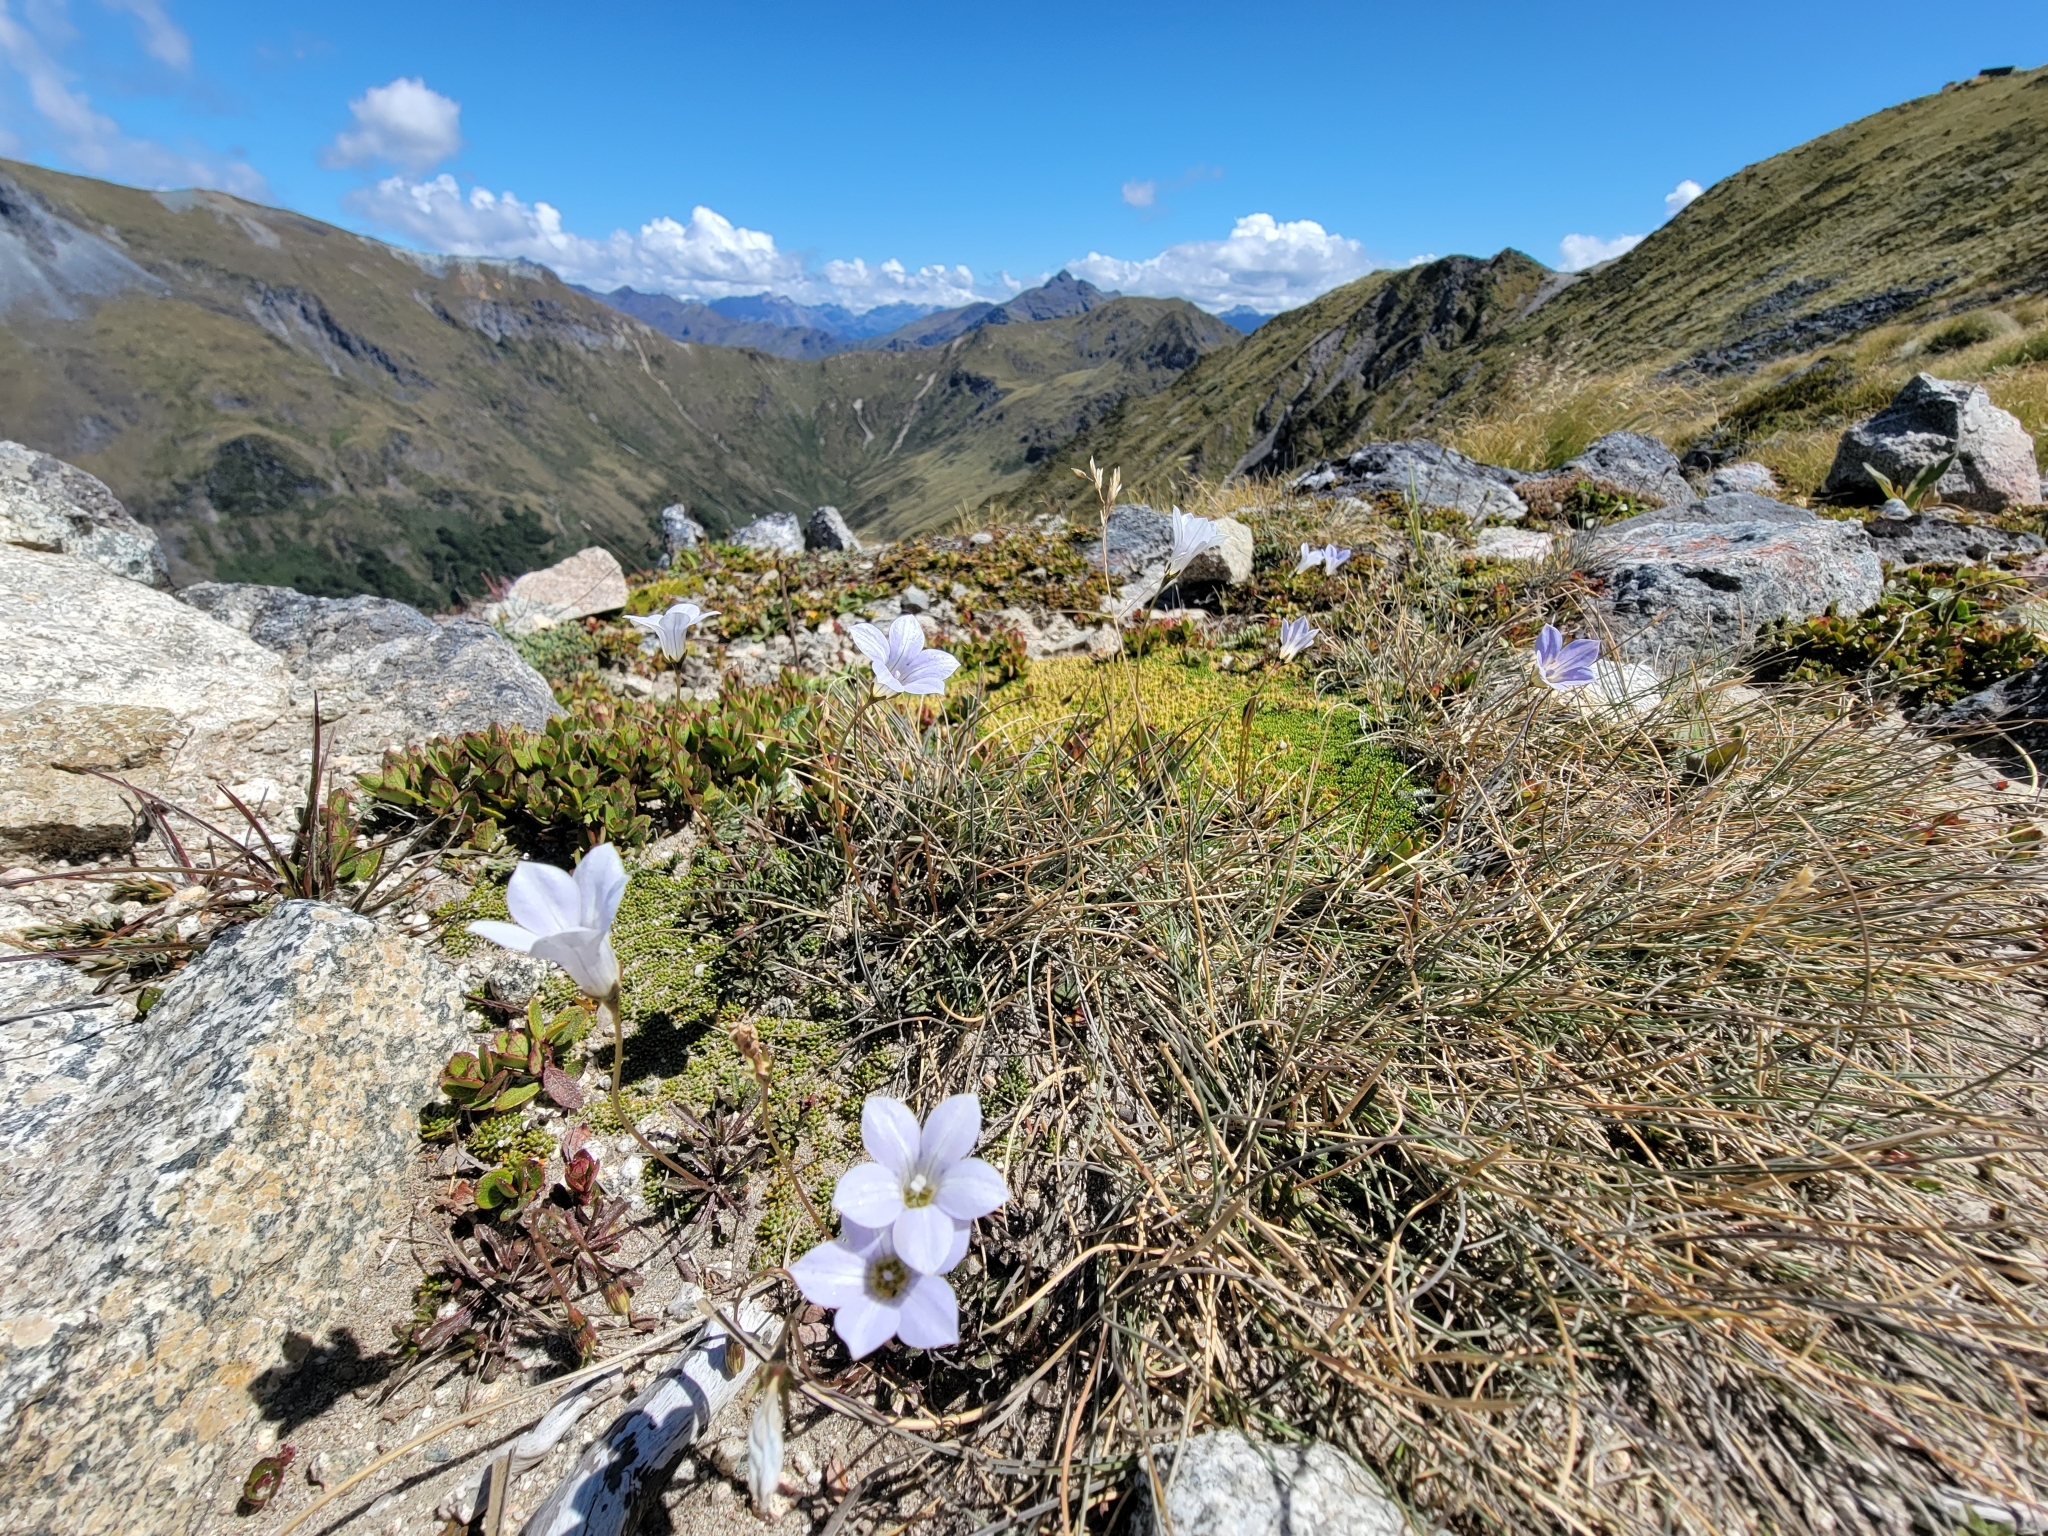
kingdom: Plantae
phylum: Tracheophyta
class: Magnoliopsida
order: Asterales
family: Campanulaceae
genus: Wahlenbergia
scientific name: Wahlenbergia albomarginata
